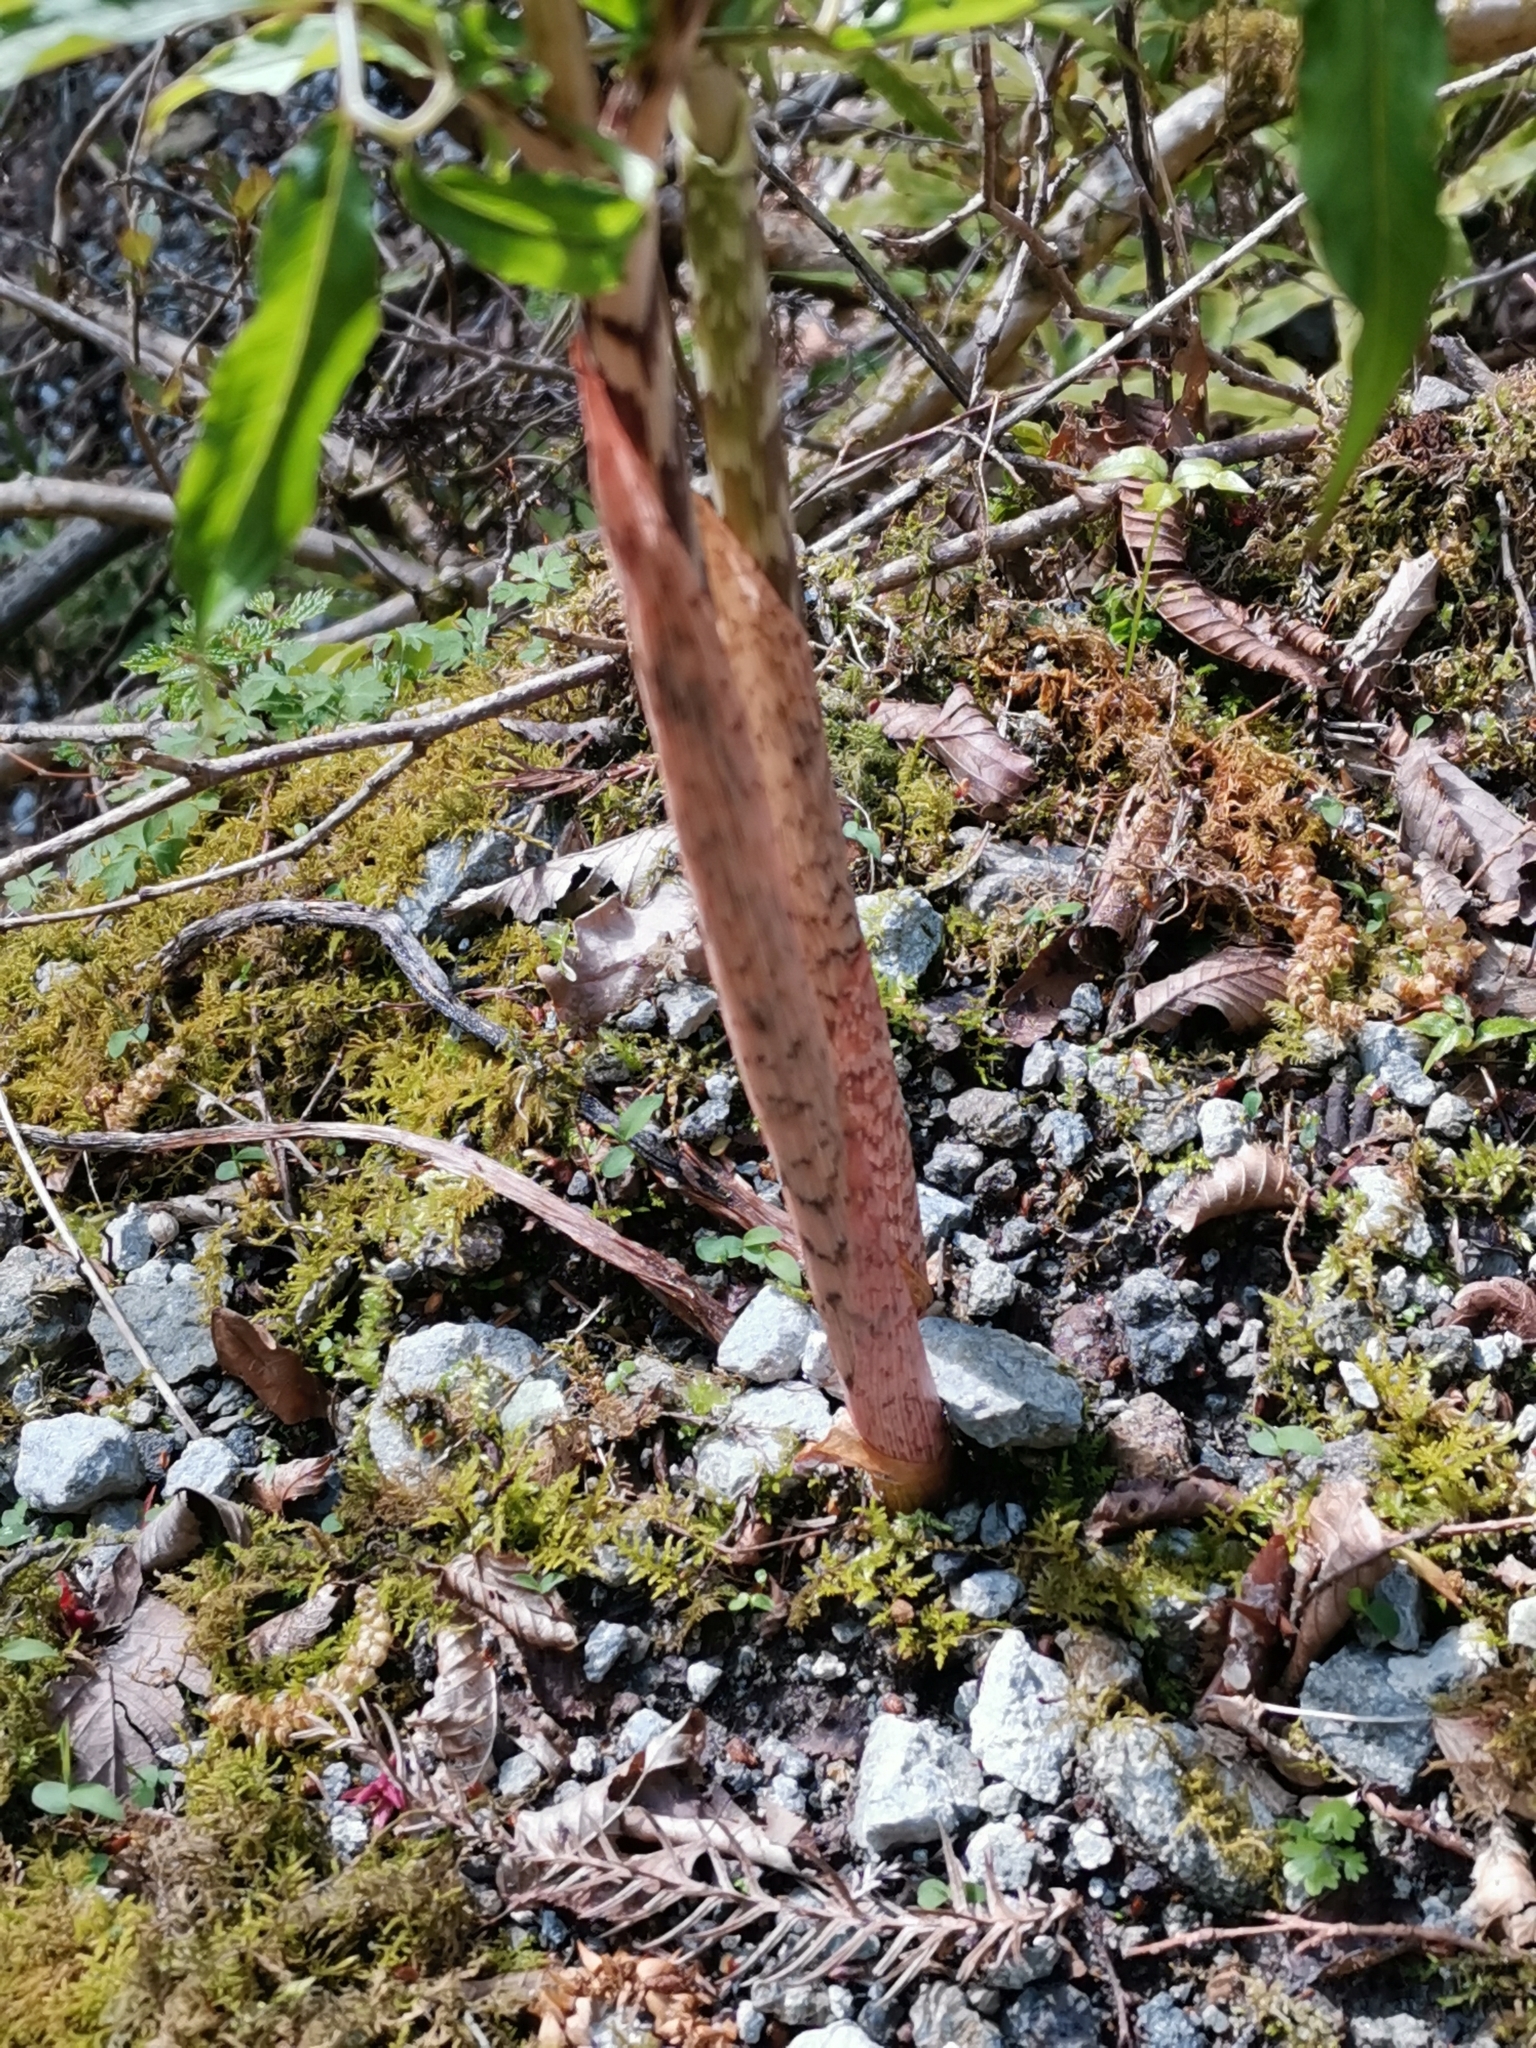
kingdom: Plantae
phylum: Tracheophyta
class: Liliopsida
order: Alismatales
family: Araceae
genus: Arisaema
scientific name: Arisaema angustatum
